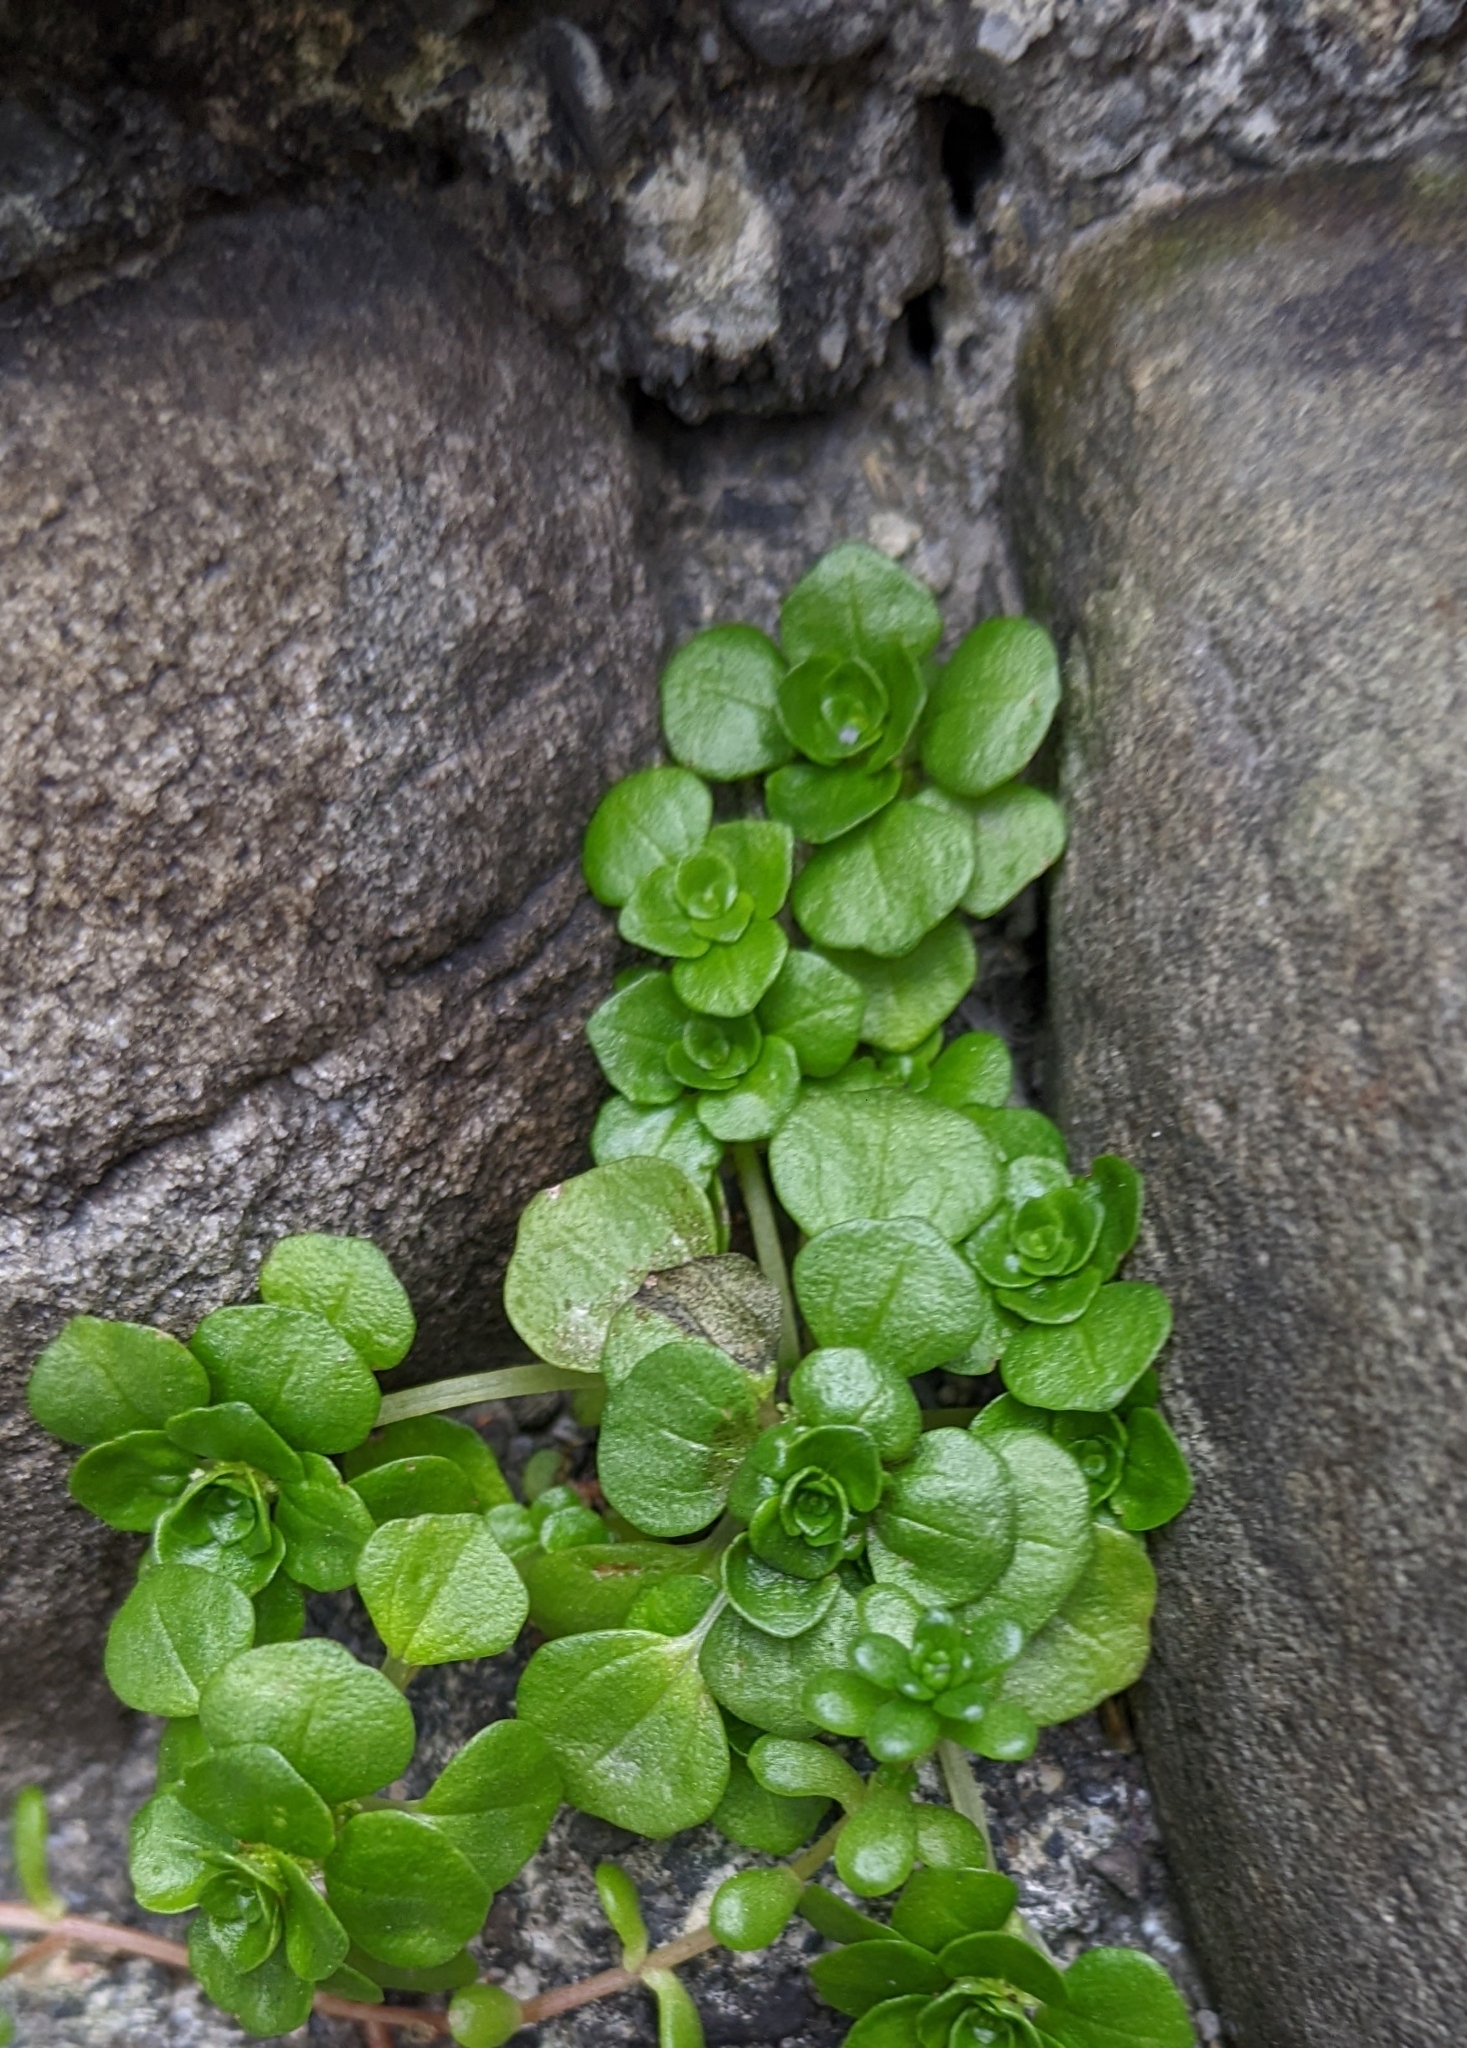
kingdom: Plantae
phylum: Tracheophyta
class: Magnoliopsida
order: Rosales
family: Urticaceae
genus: Pilea
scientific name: Pilea peploides
